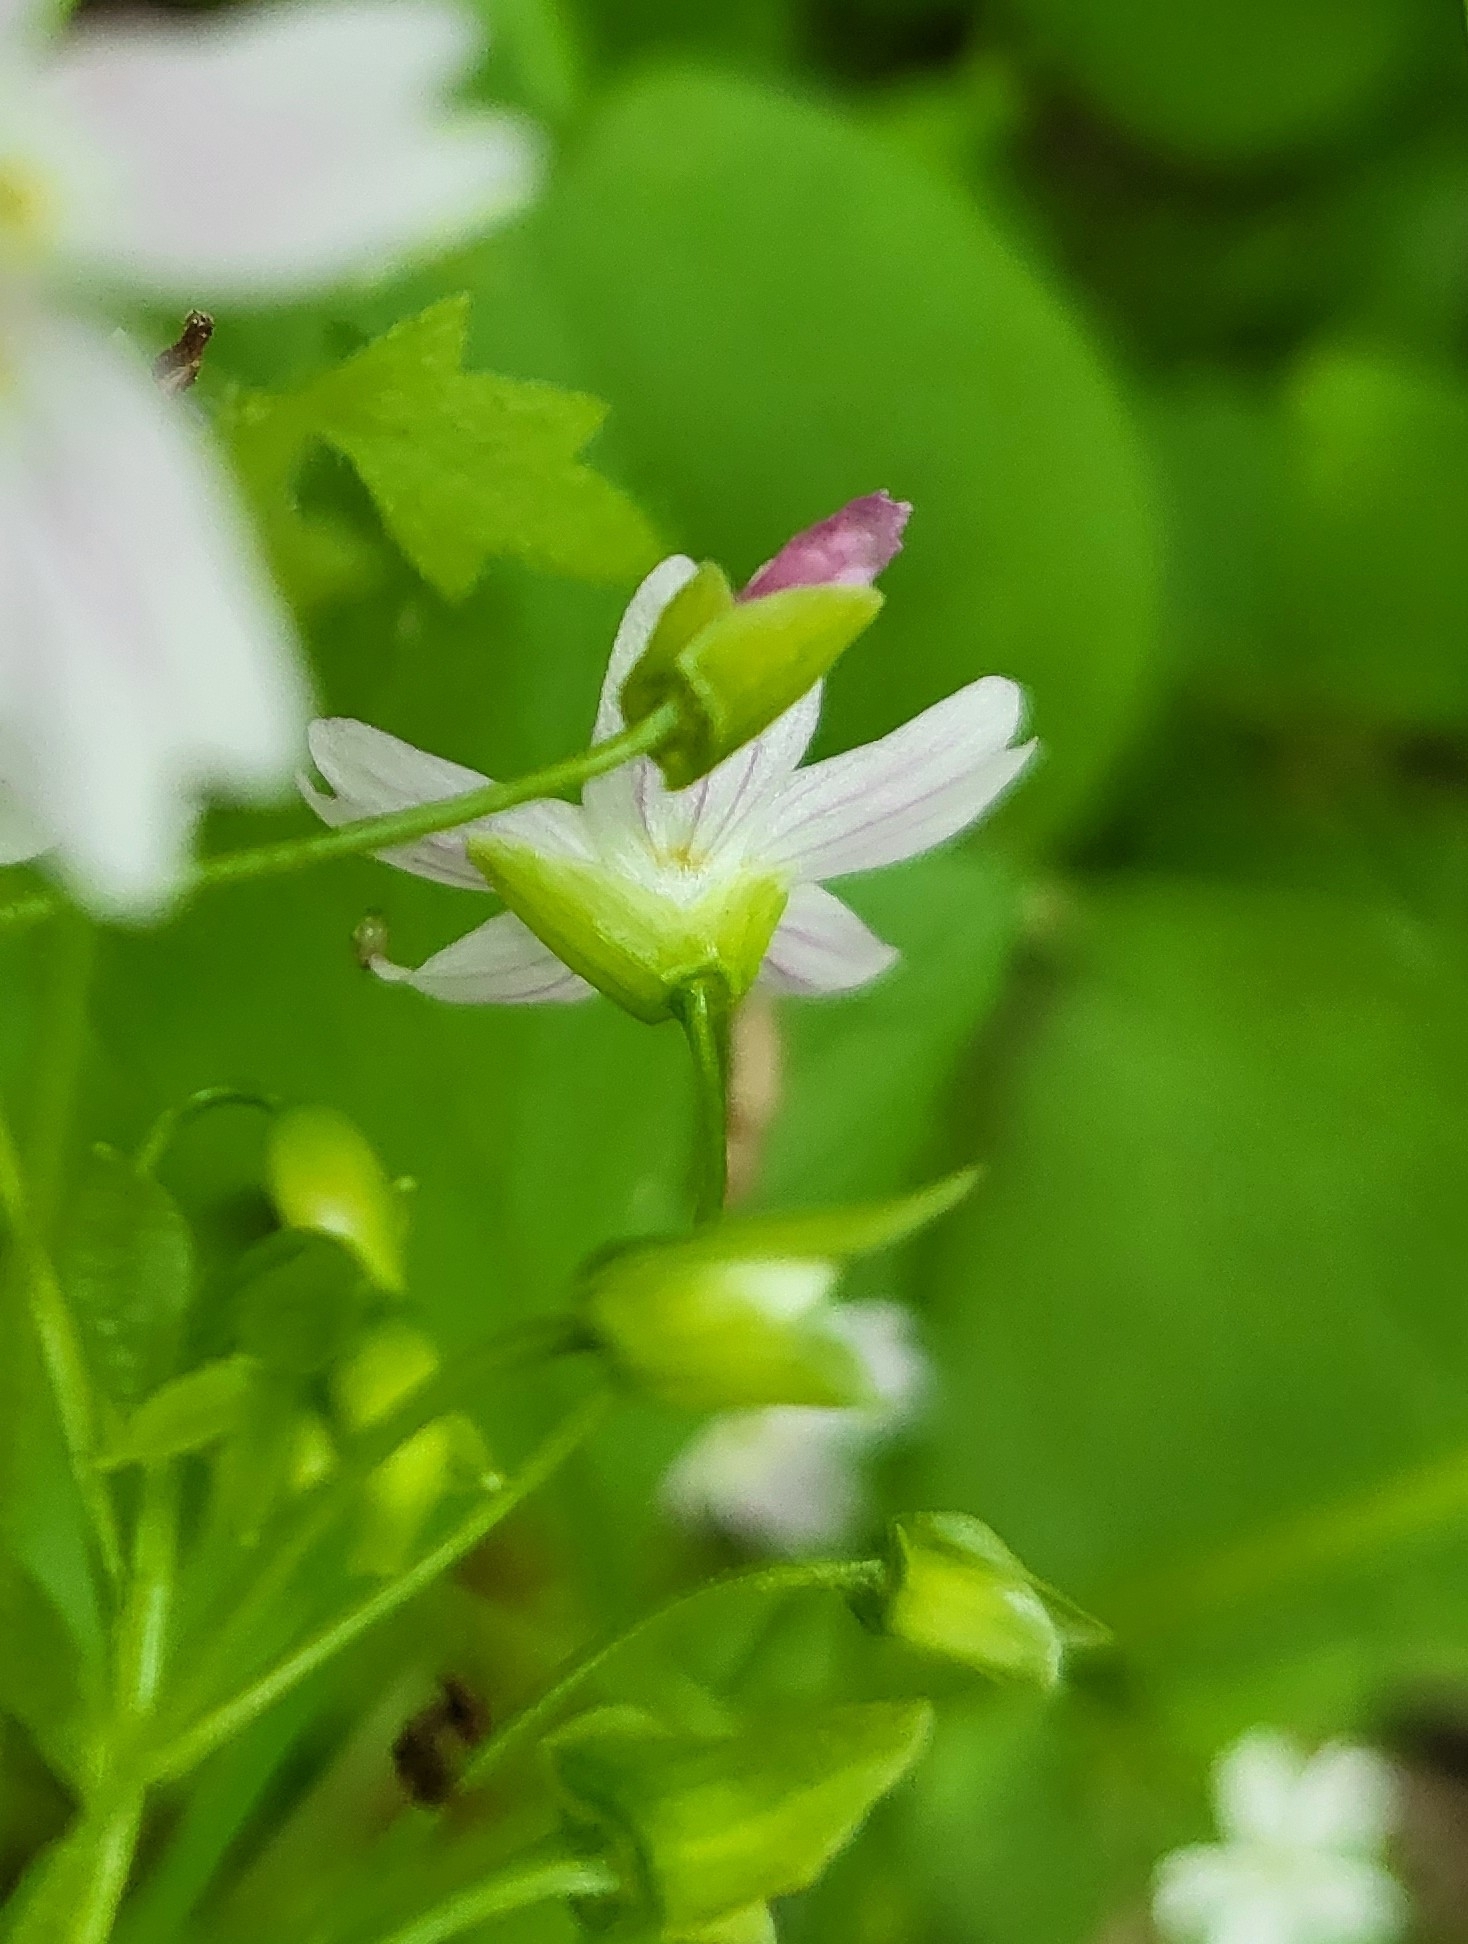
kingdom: Plantae
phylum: Tracheophyta
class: Magnoliopsida
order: Caryophyllales
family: Montiaceae
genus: Claytonia
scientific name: Claytonia sibirica
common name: Pink purslane
